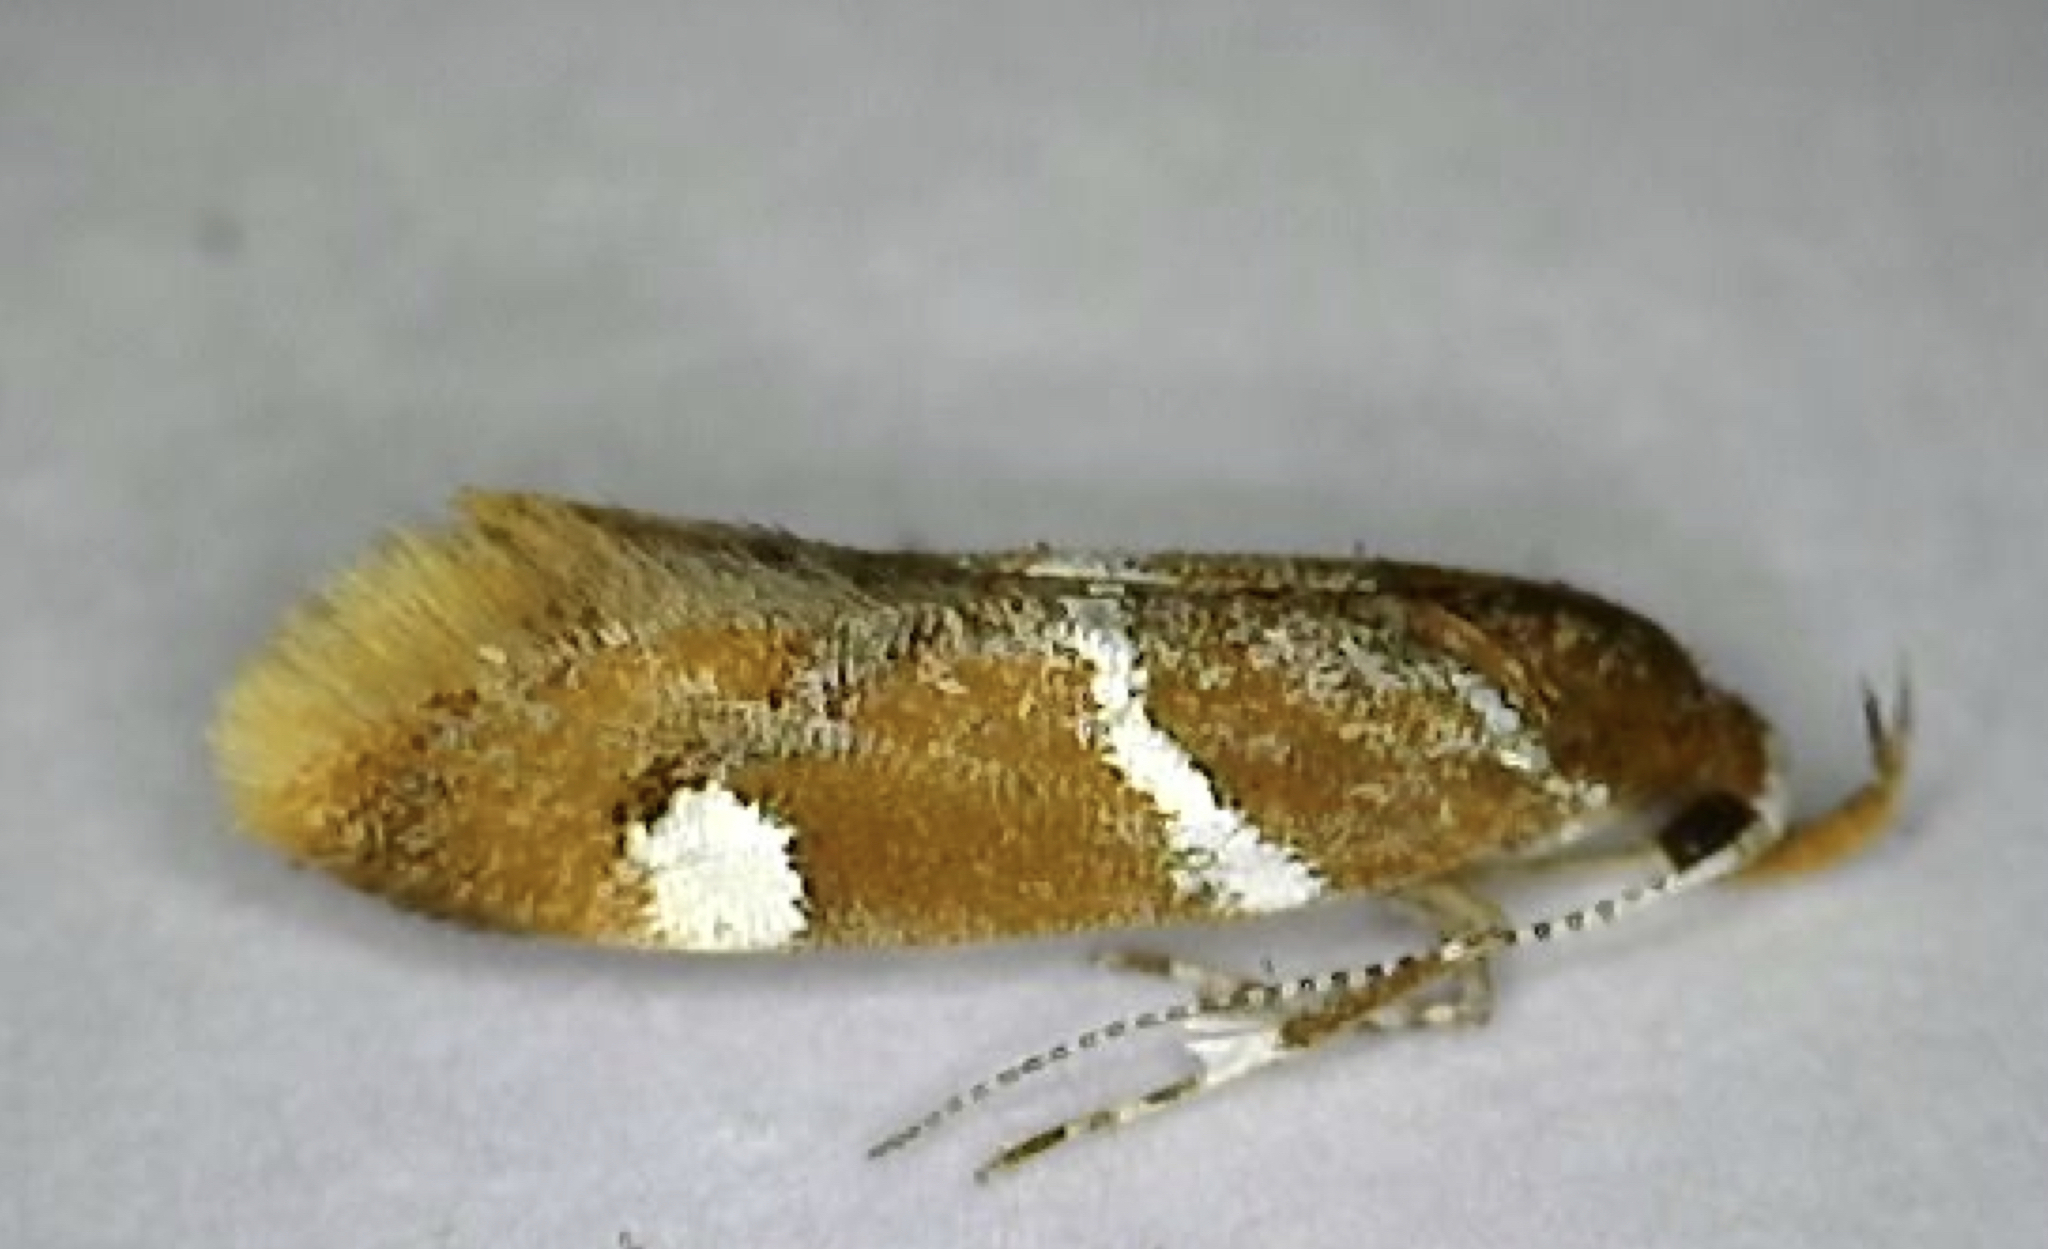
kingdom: Animalia
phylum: Arthropoda
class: Insecta
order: Lepidoptera
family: Oecophoridae
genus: Promalactis
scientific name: Promalactis suzukiella
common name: Moth
